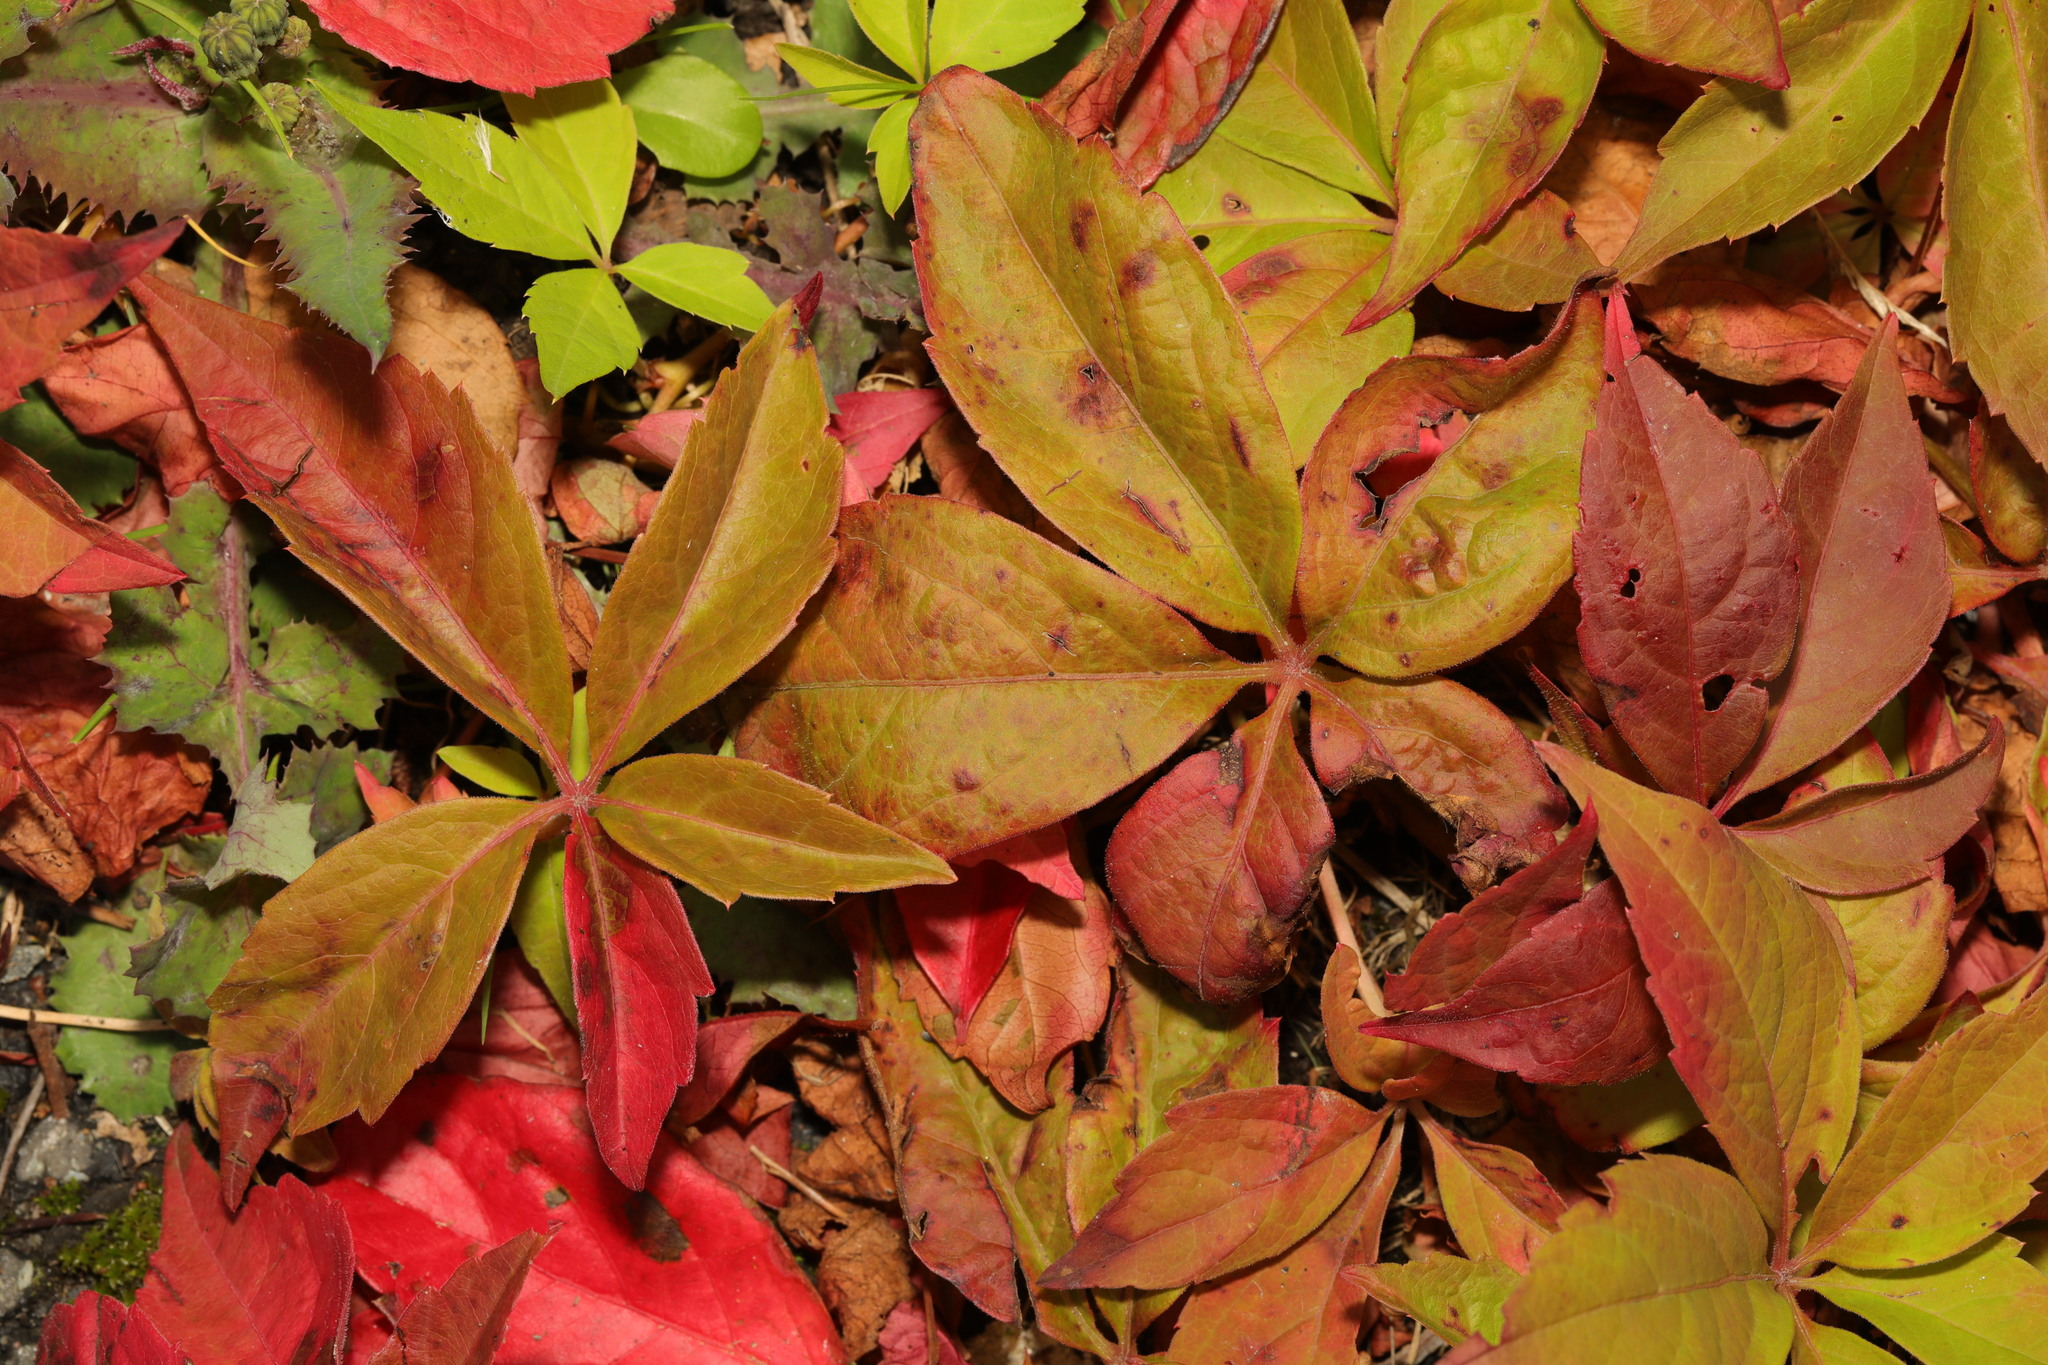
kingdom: Plantae
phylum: Tracheophyta
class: Magnoliopsida
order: Vitales
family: Vitaceae
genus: Parthenocissus
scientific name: Parthenocissus quinquefolia
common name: Virginia-creeper
